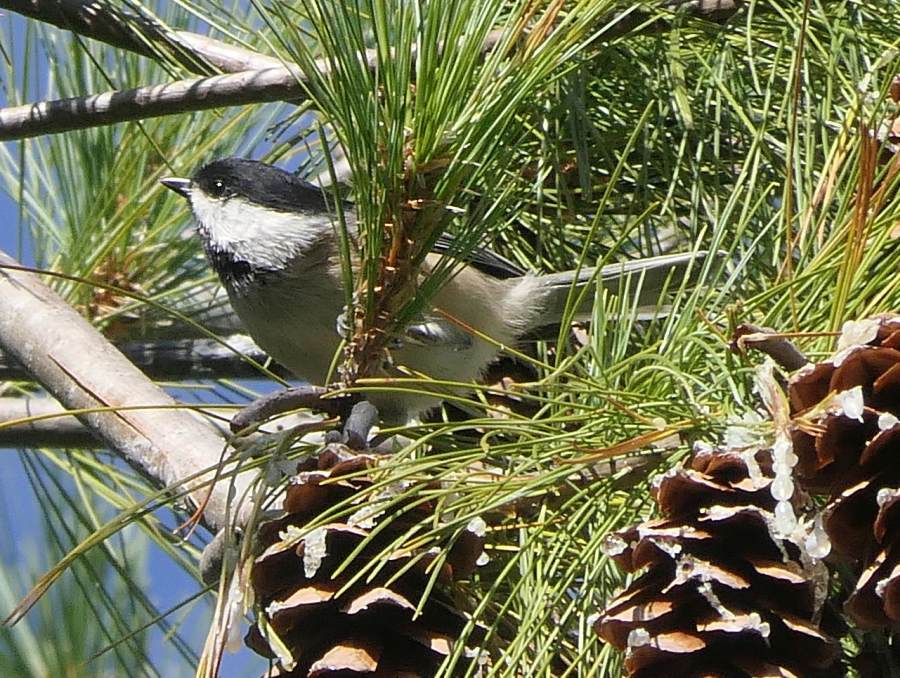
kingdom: Animalia
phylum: Chordata
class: Aves
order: Passeriformes
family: Paridae
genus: Poecile
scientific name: Poecile atricapillus
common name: Black-capped chickadee
